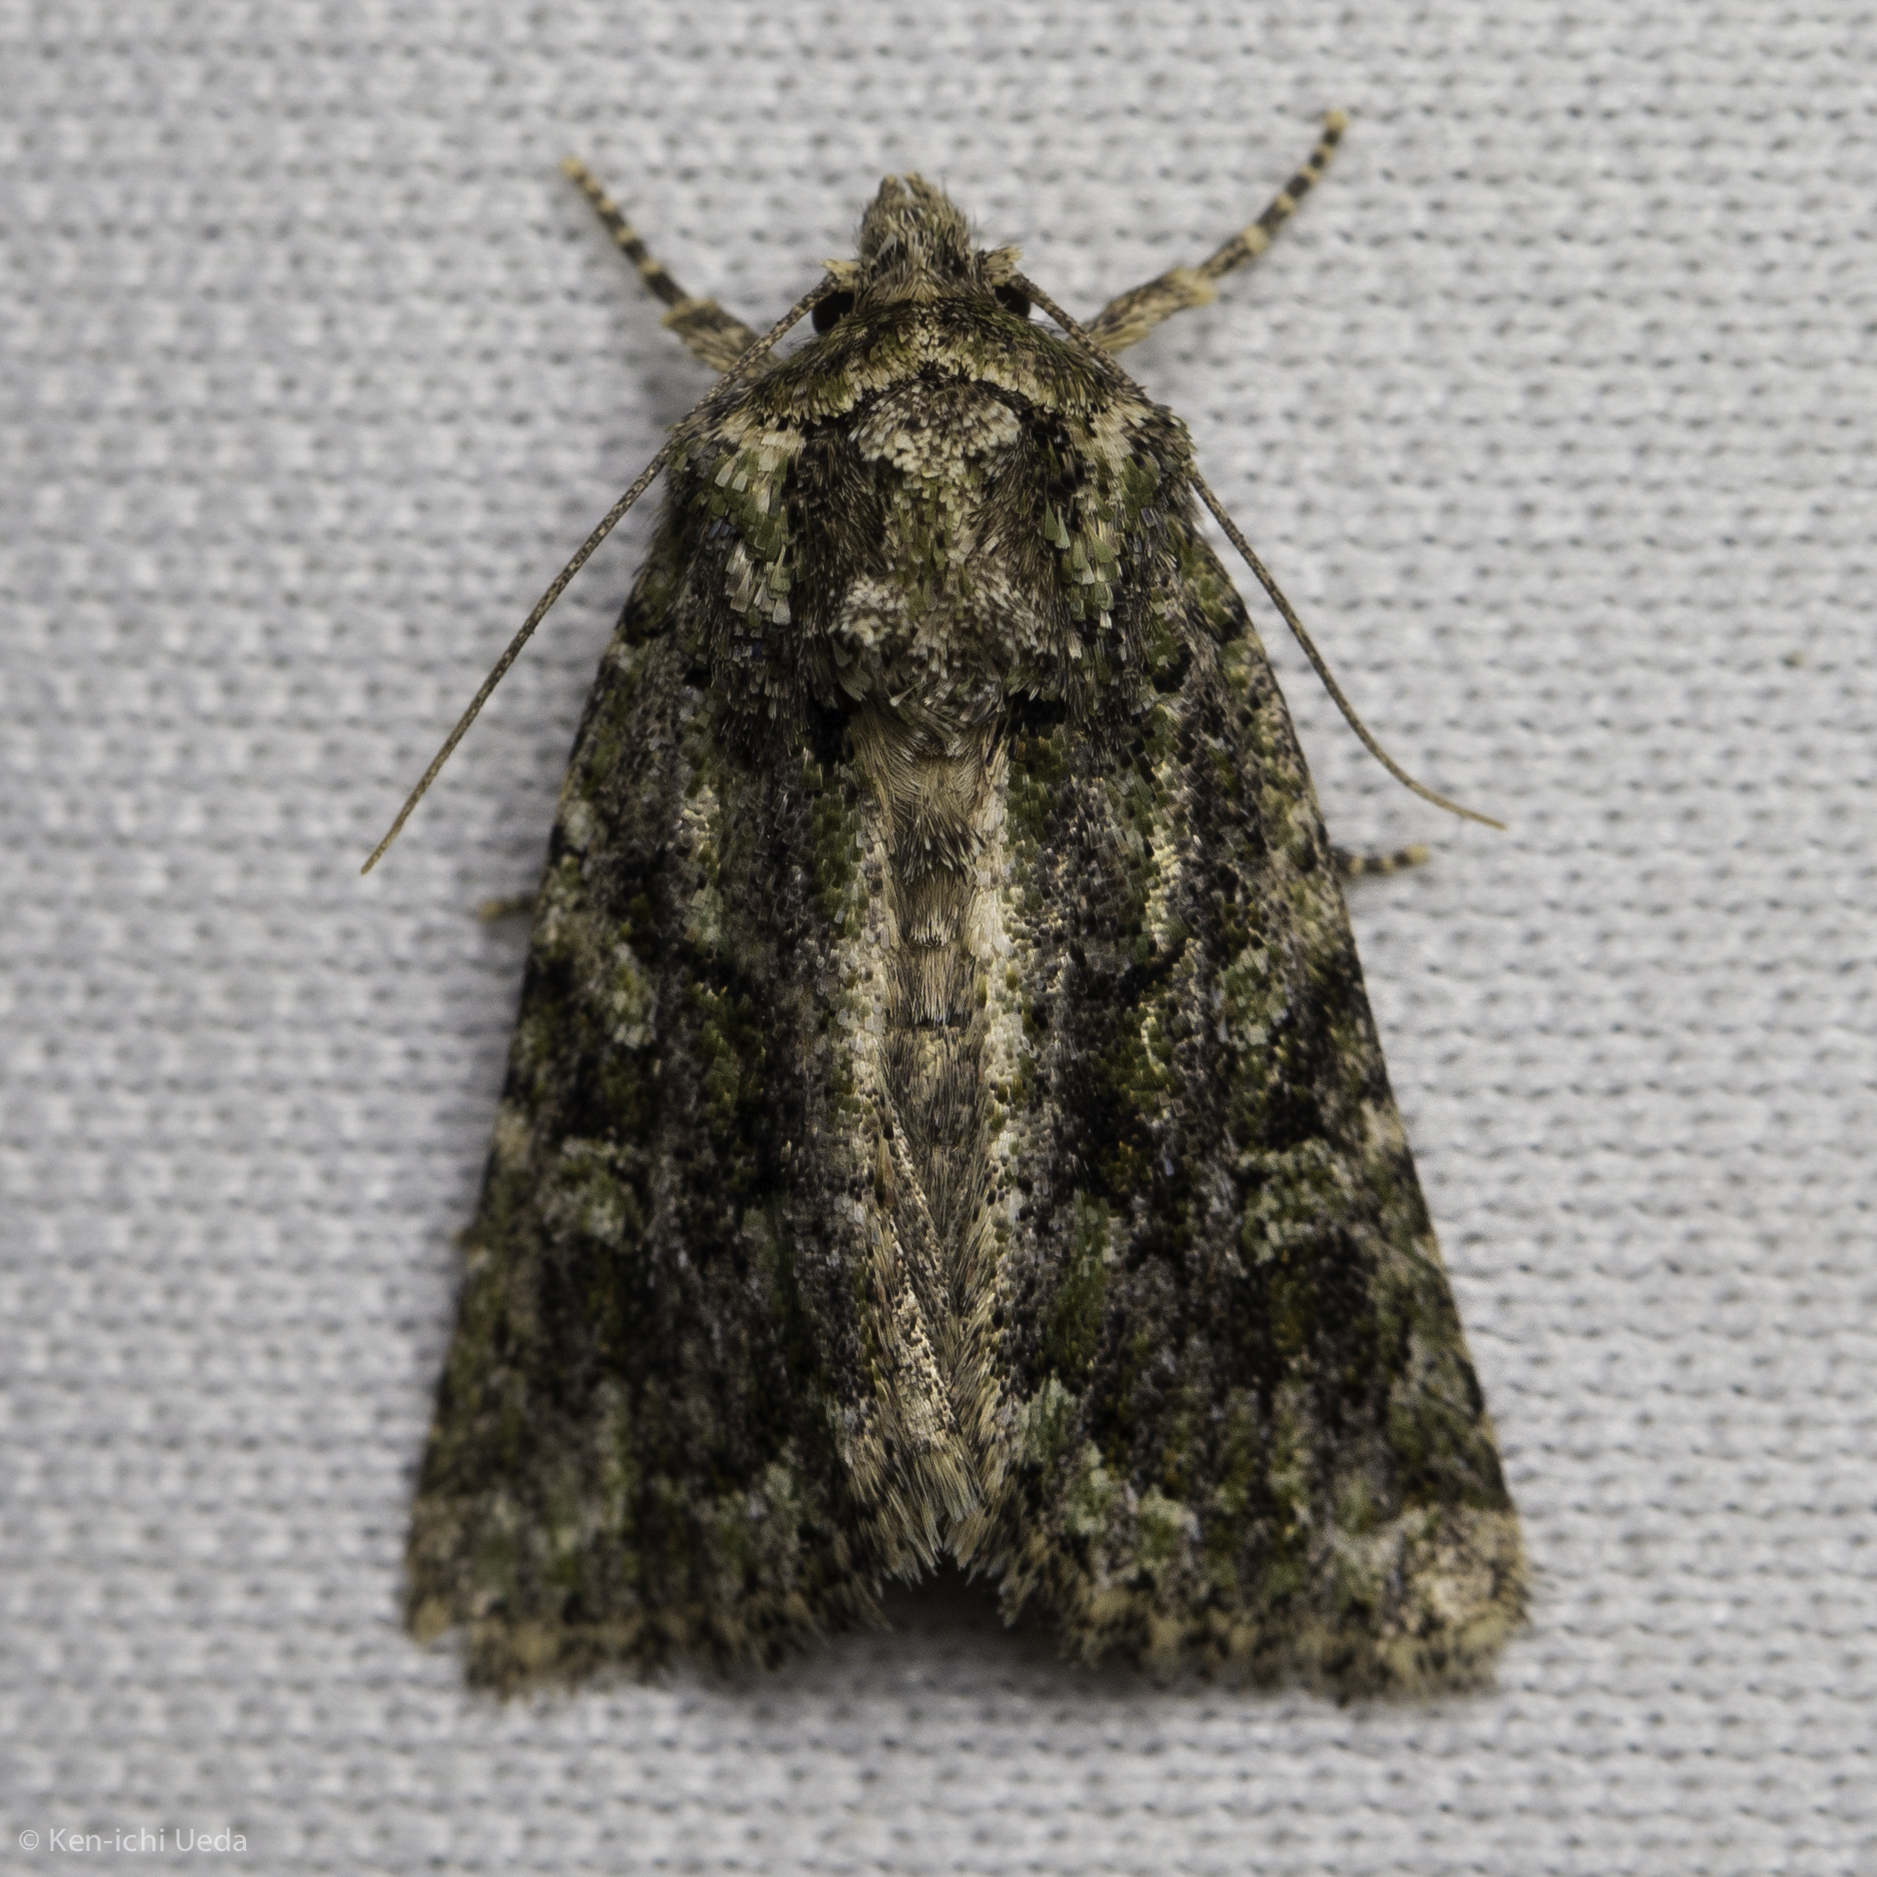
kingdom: Animalia
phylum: Arthropoda
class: Insecta
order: Lepidoptera
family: Noctuidae
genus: Aseptis
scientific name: Aseptis marina
